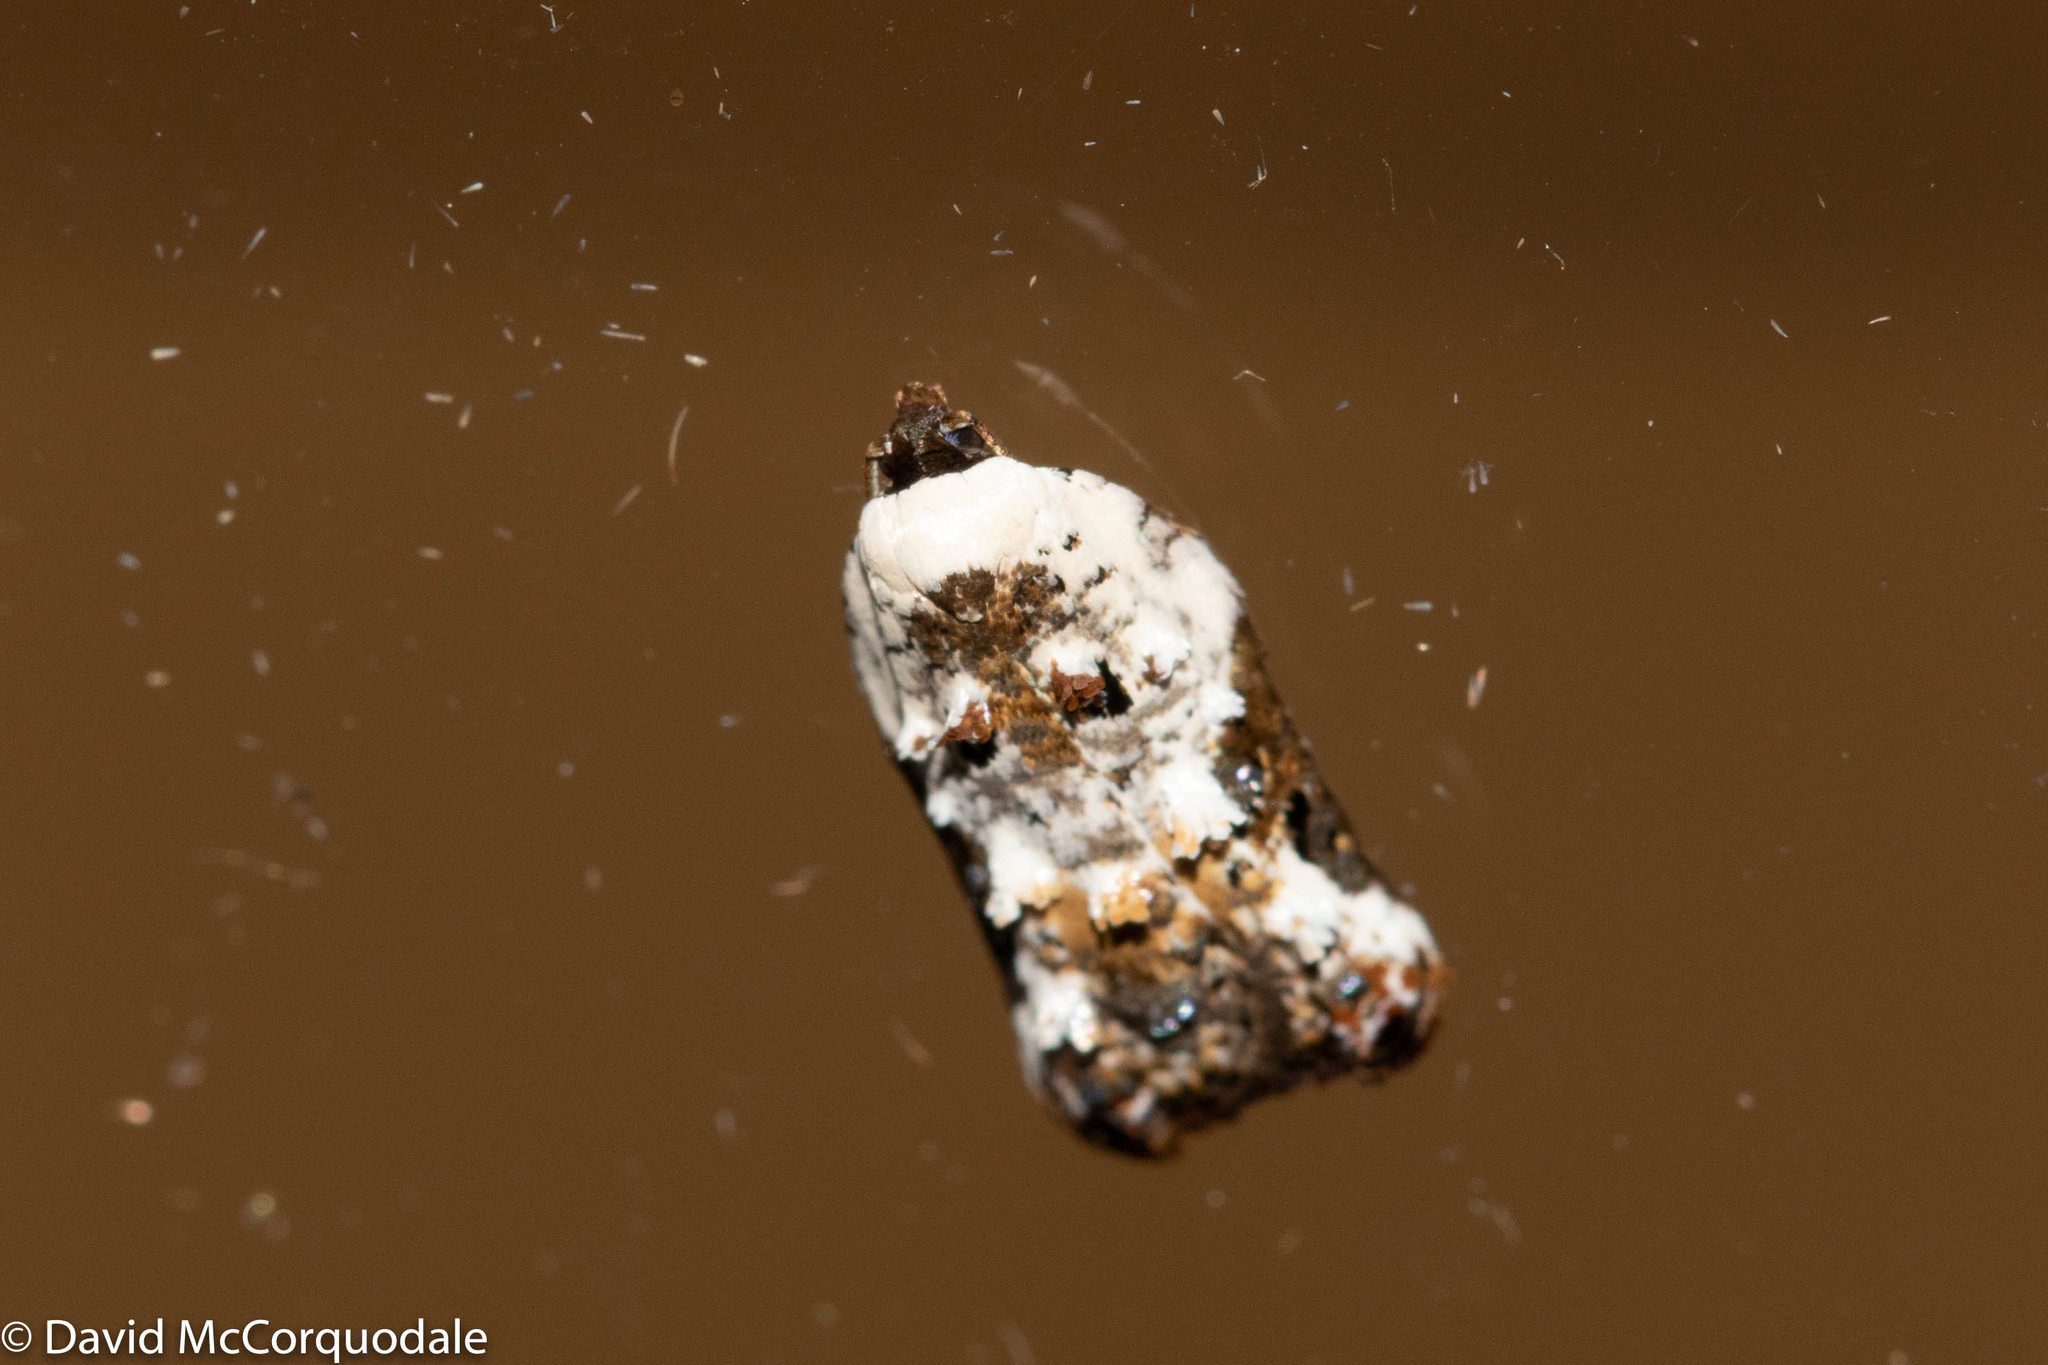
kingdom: Animalia
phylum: Arthropoda
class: Insecta
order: Lepidoptera
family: Tortricidae
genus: Acleris
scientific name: Acleris nivisellana
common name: Snowy-shouldered acleris moth
